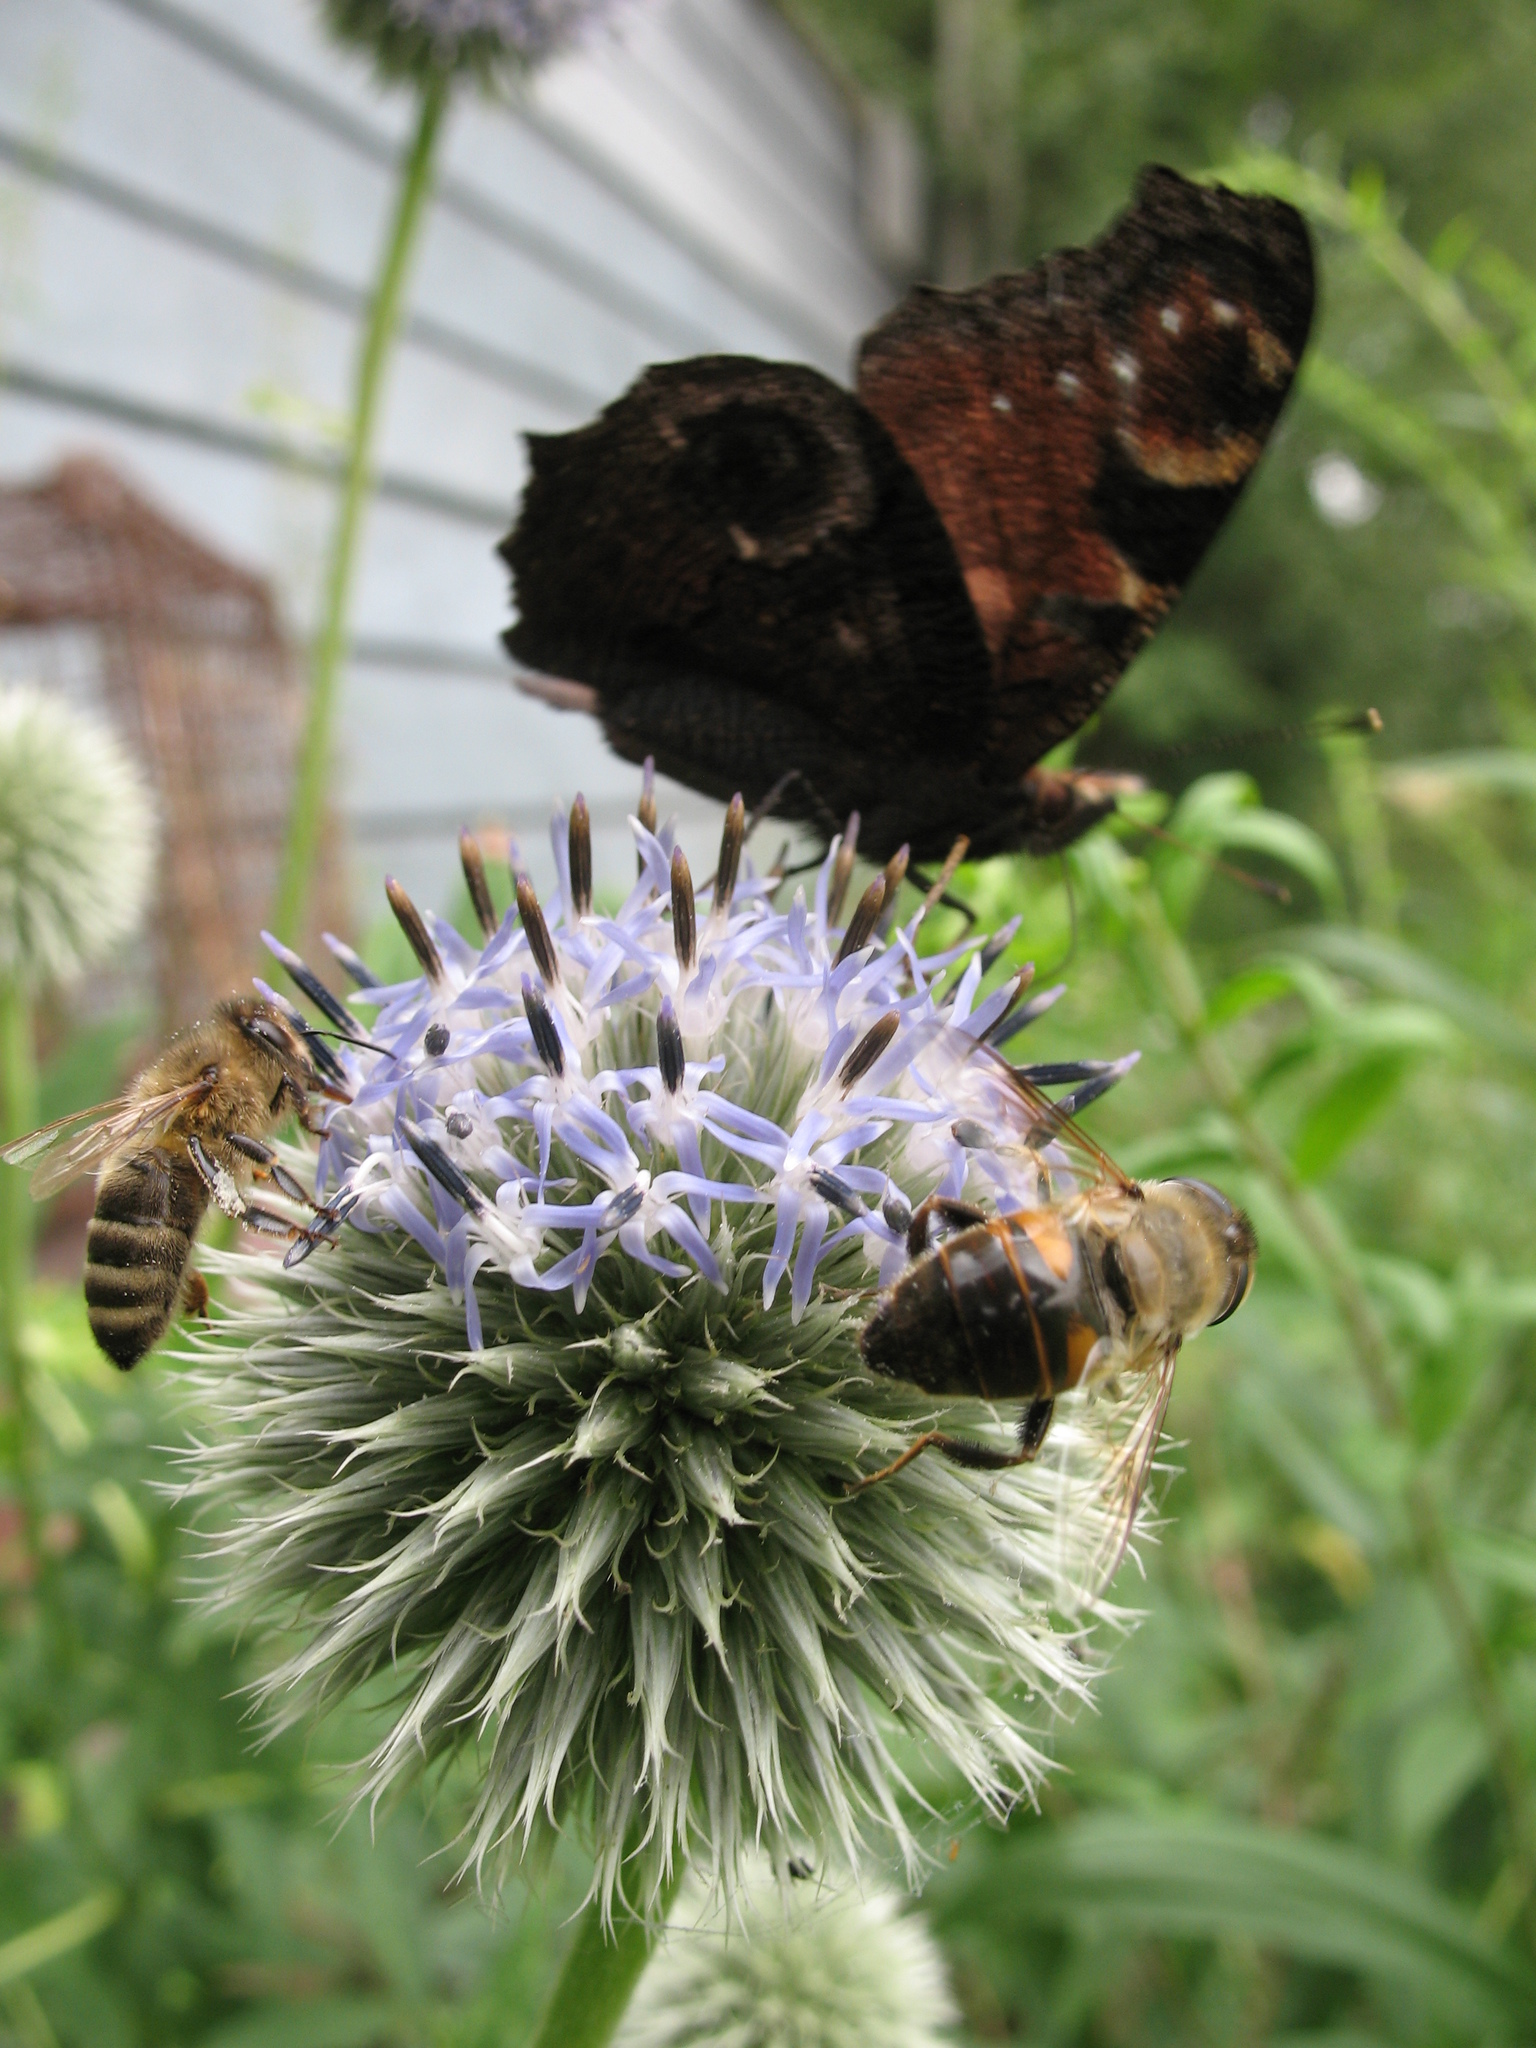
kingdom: Animalia
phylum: Arthropoda
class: Insecta
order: Lepidoptera
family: Nymphalidae
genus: Aglais
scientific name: Aglais io
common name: Peacock
